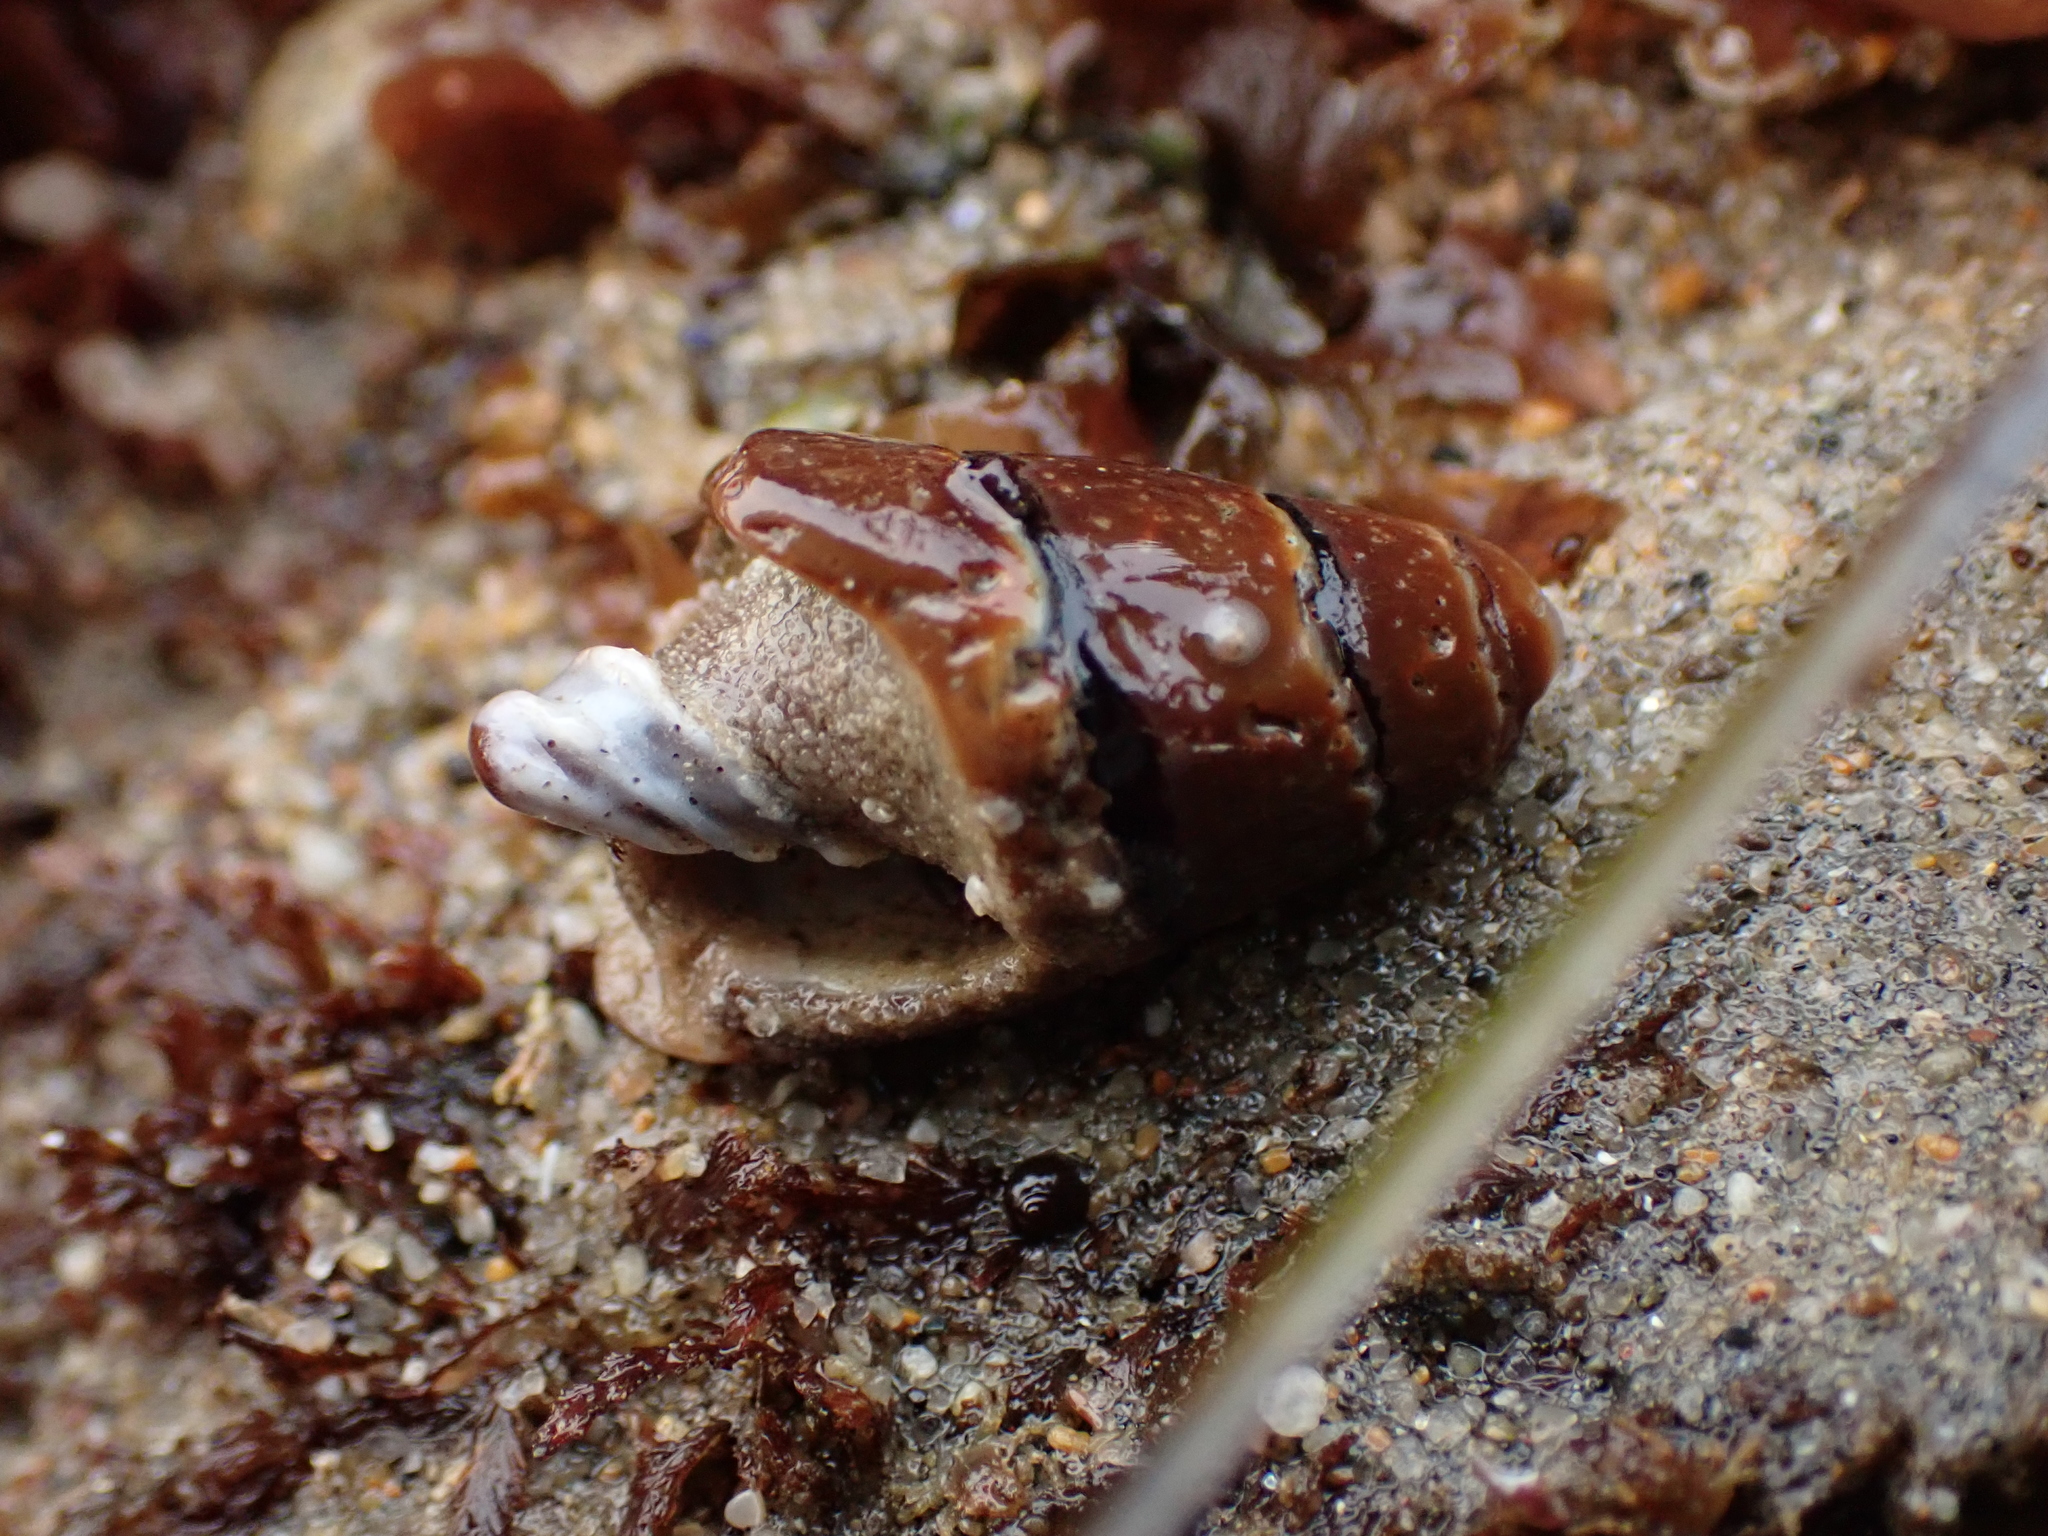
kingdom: Animalia
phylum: Mollusca
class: Gastropoda
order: Neogastropoda
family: Mitridae
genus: Atrimitra
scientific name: Atrimitra idae
